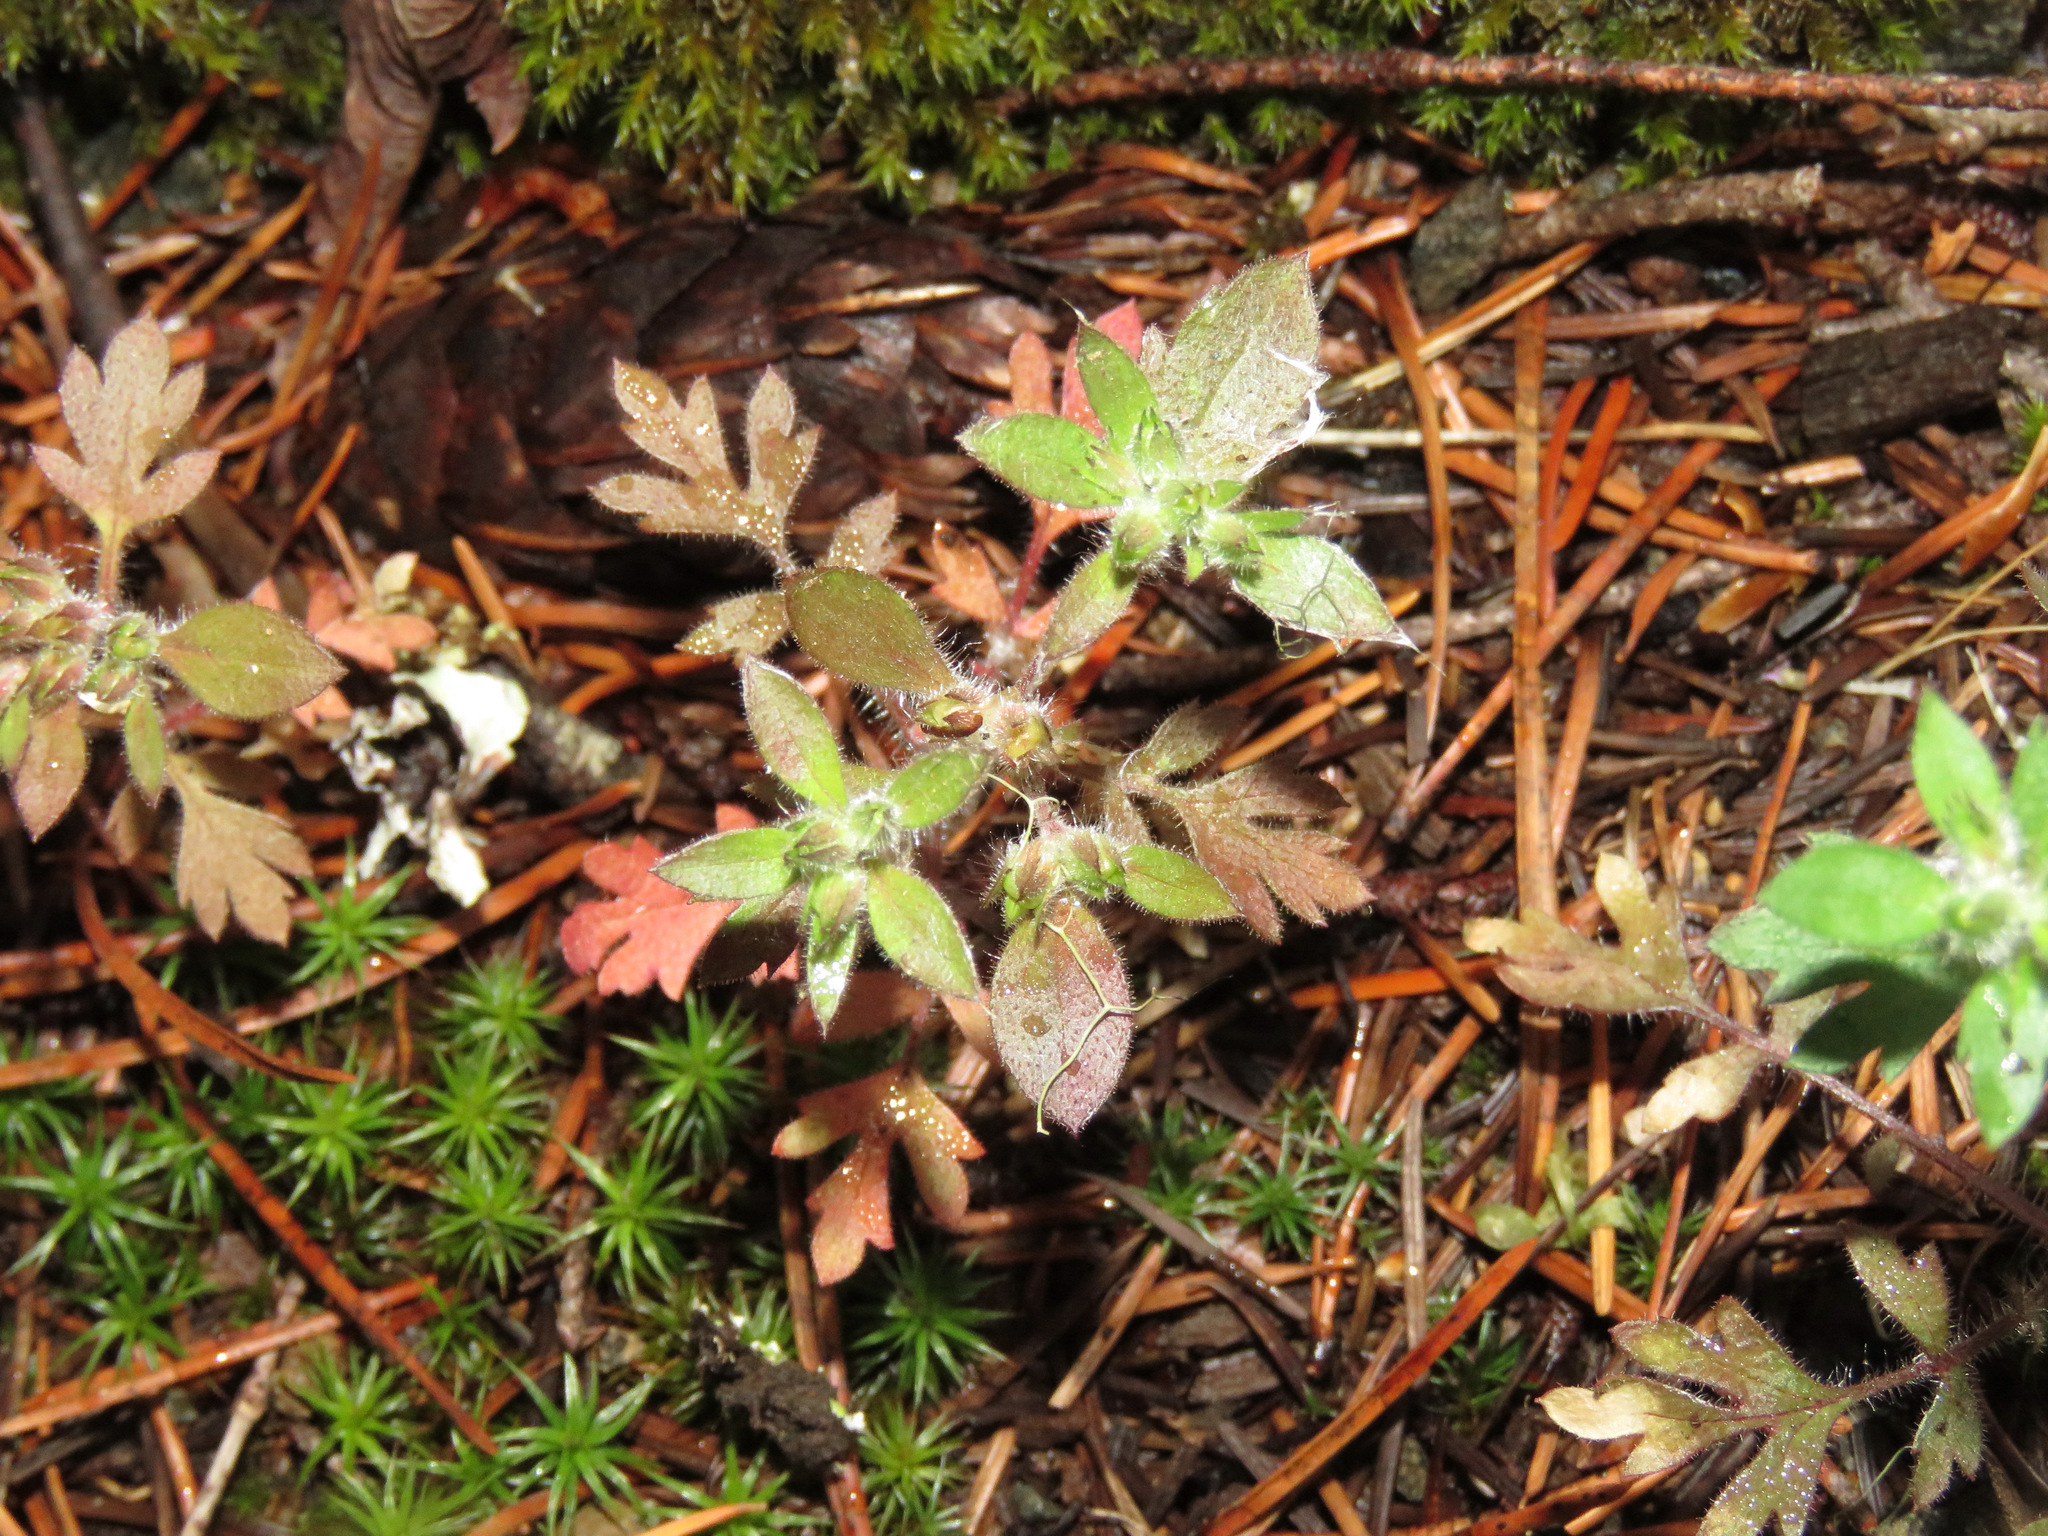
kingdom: Plantae
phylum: Tracheophyta
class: Magnoliopsida
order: Ericales
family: Polemoniaceae
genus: Collomia
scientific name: Collomia heterophylla
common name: Variable-leaved collomia
